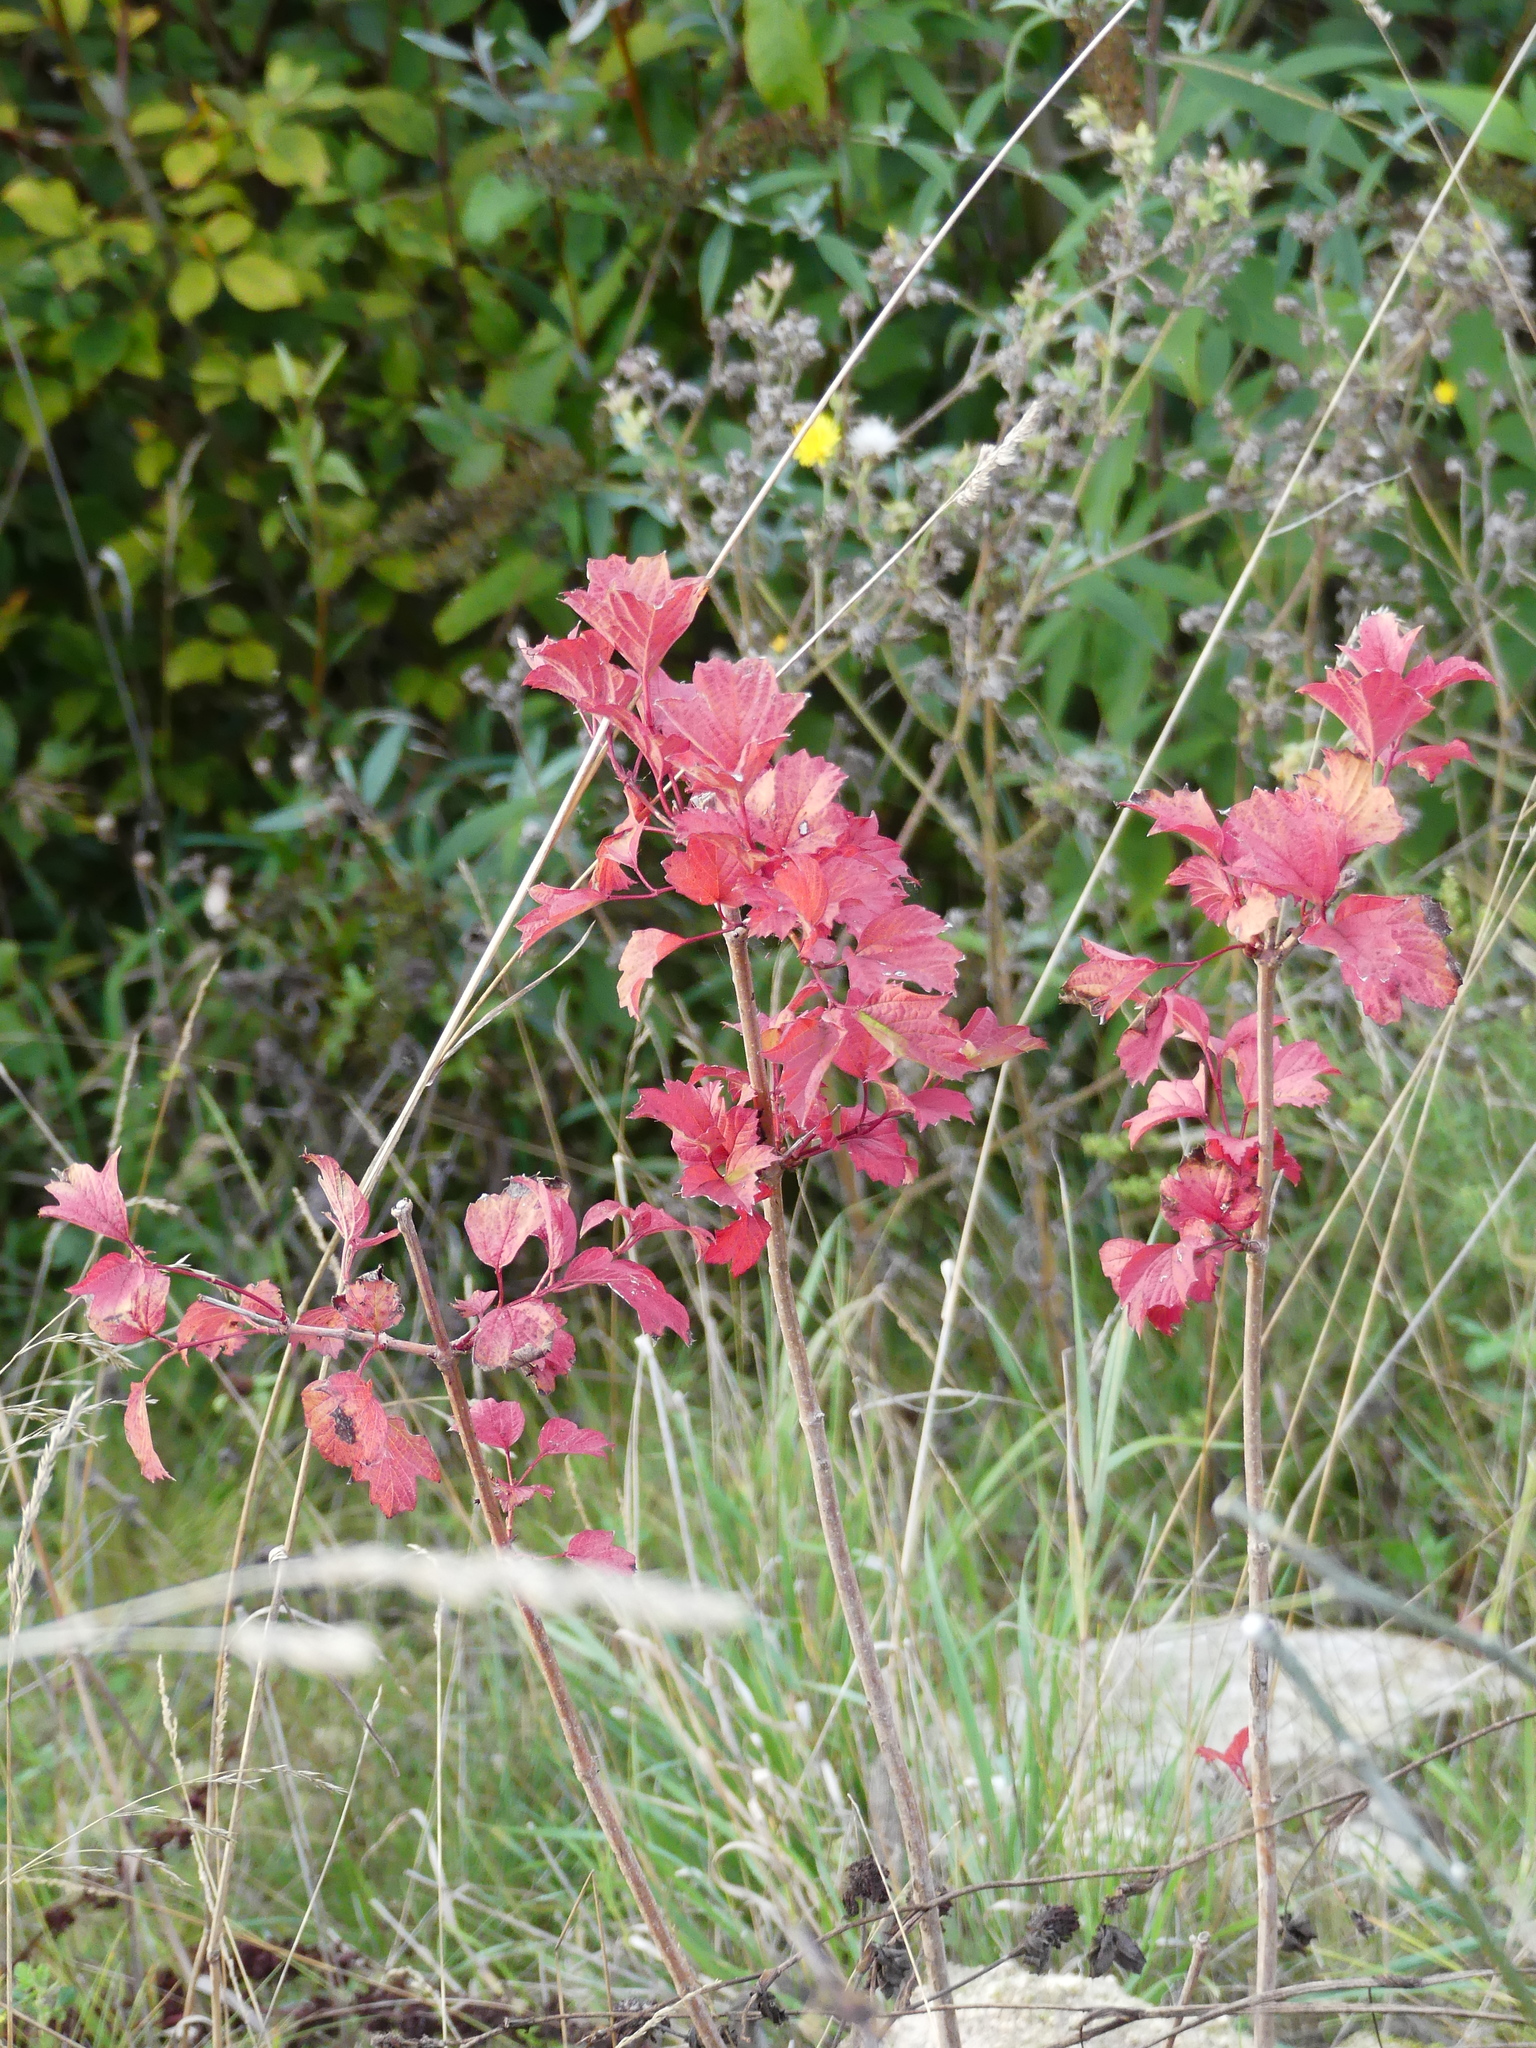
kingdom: Plantae
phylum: Tracheophyta
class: Magnoliopsida
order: Dipsacales
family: Viburnaceae
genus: Viburnum
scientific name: Viburnum opulus
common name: Guelder-rose
